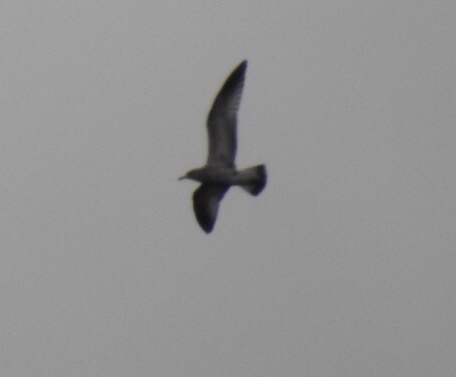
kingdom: Animalia
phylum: Chordata
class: Aves
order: Charadriiformes
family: Laridae
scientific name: Laridae
